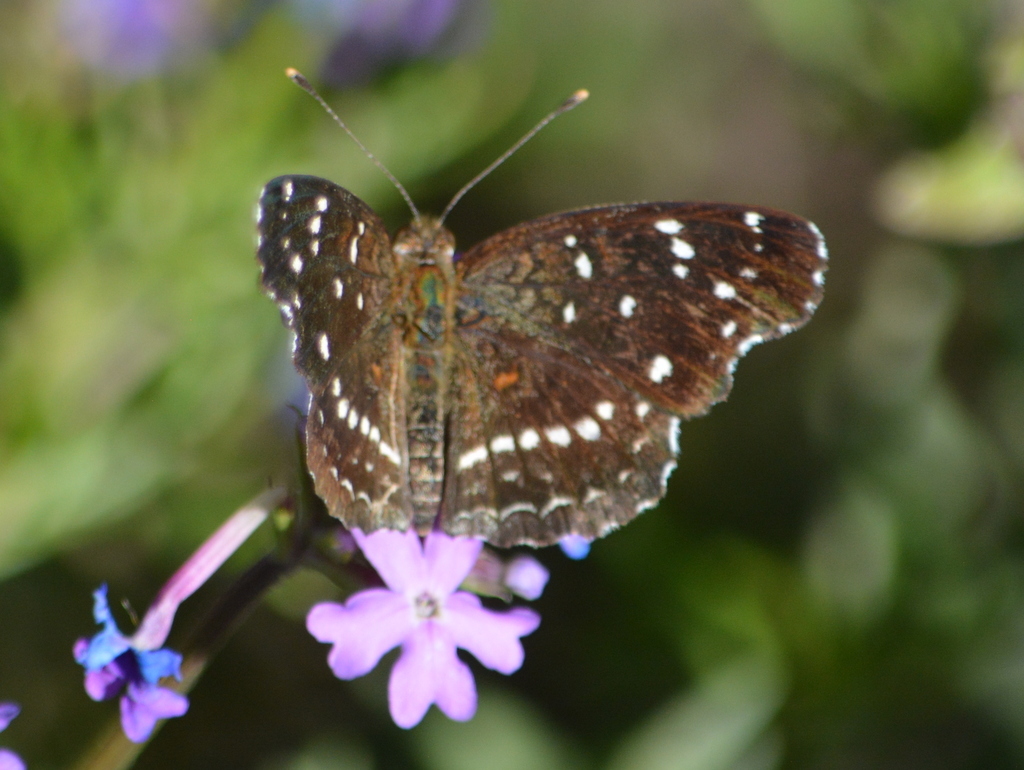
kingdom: Animalia
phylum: Arthropoda
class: Insecta
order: Lepidoptera
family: Nymphalidae
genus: Anthanassa
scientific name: Anthanassa texana
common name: Texan crescent
